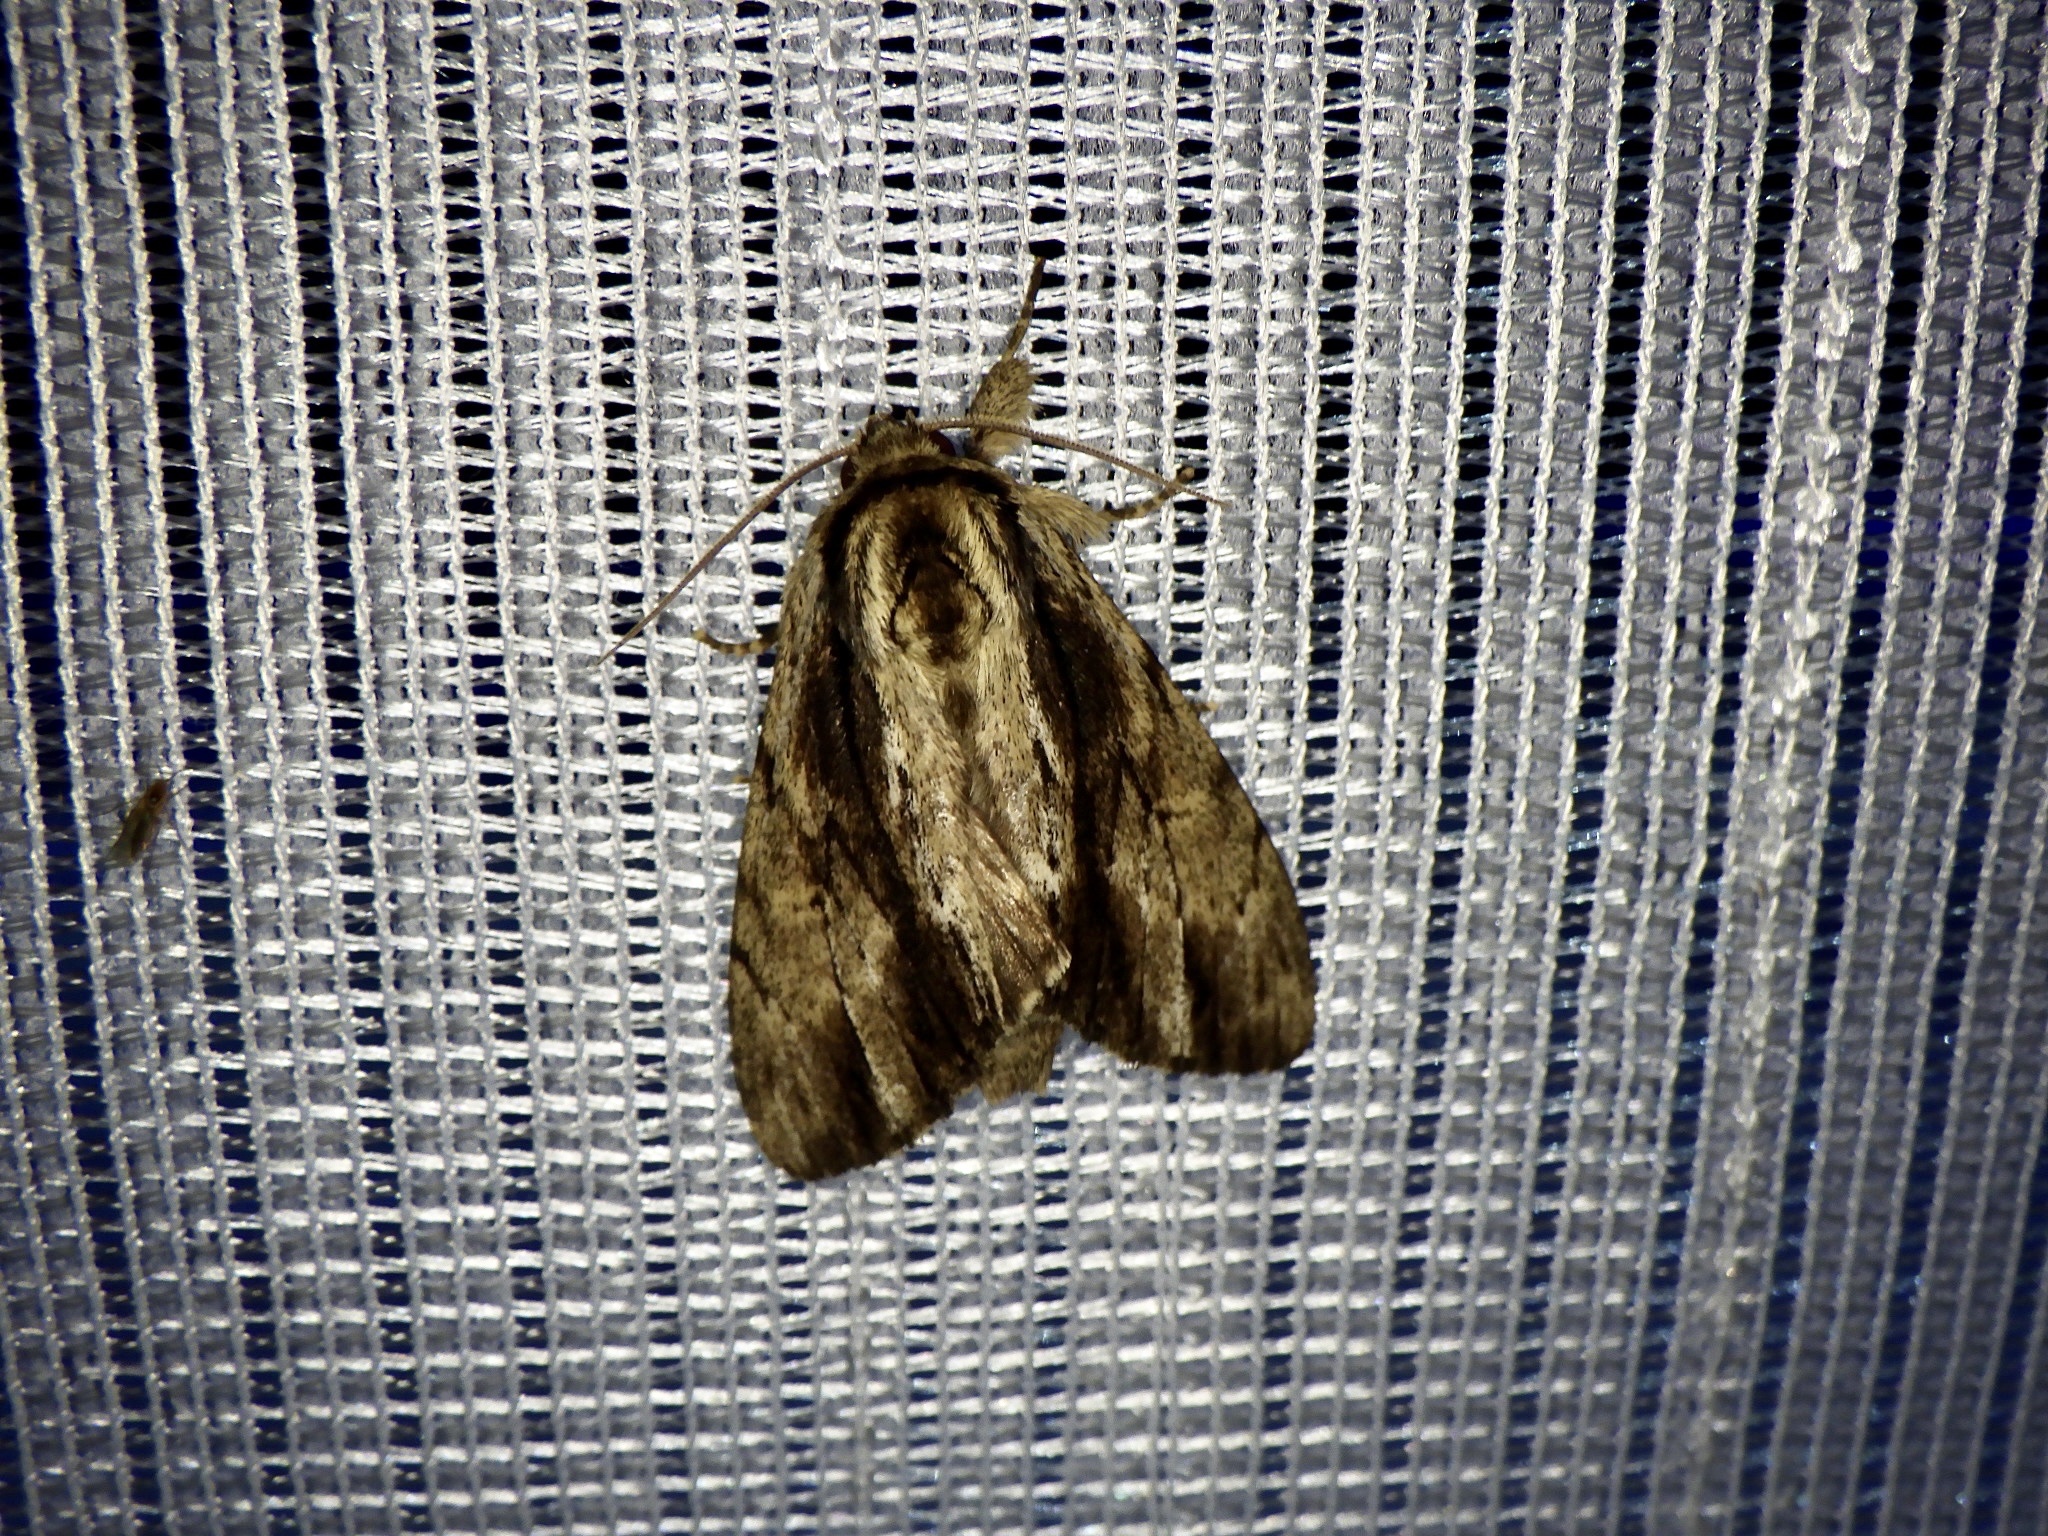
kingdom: Animalia
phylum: Arthropoda
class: Insecta
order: Lepidoptera
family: Notodontidae
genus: Shaka
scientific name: Shaka atrovittatus
